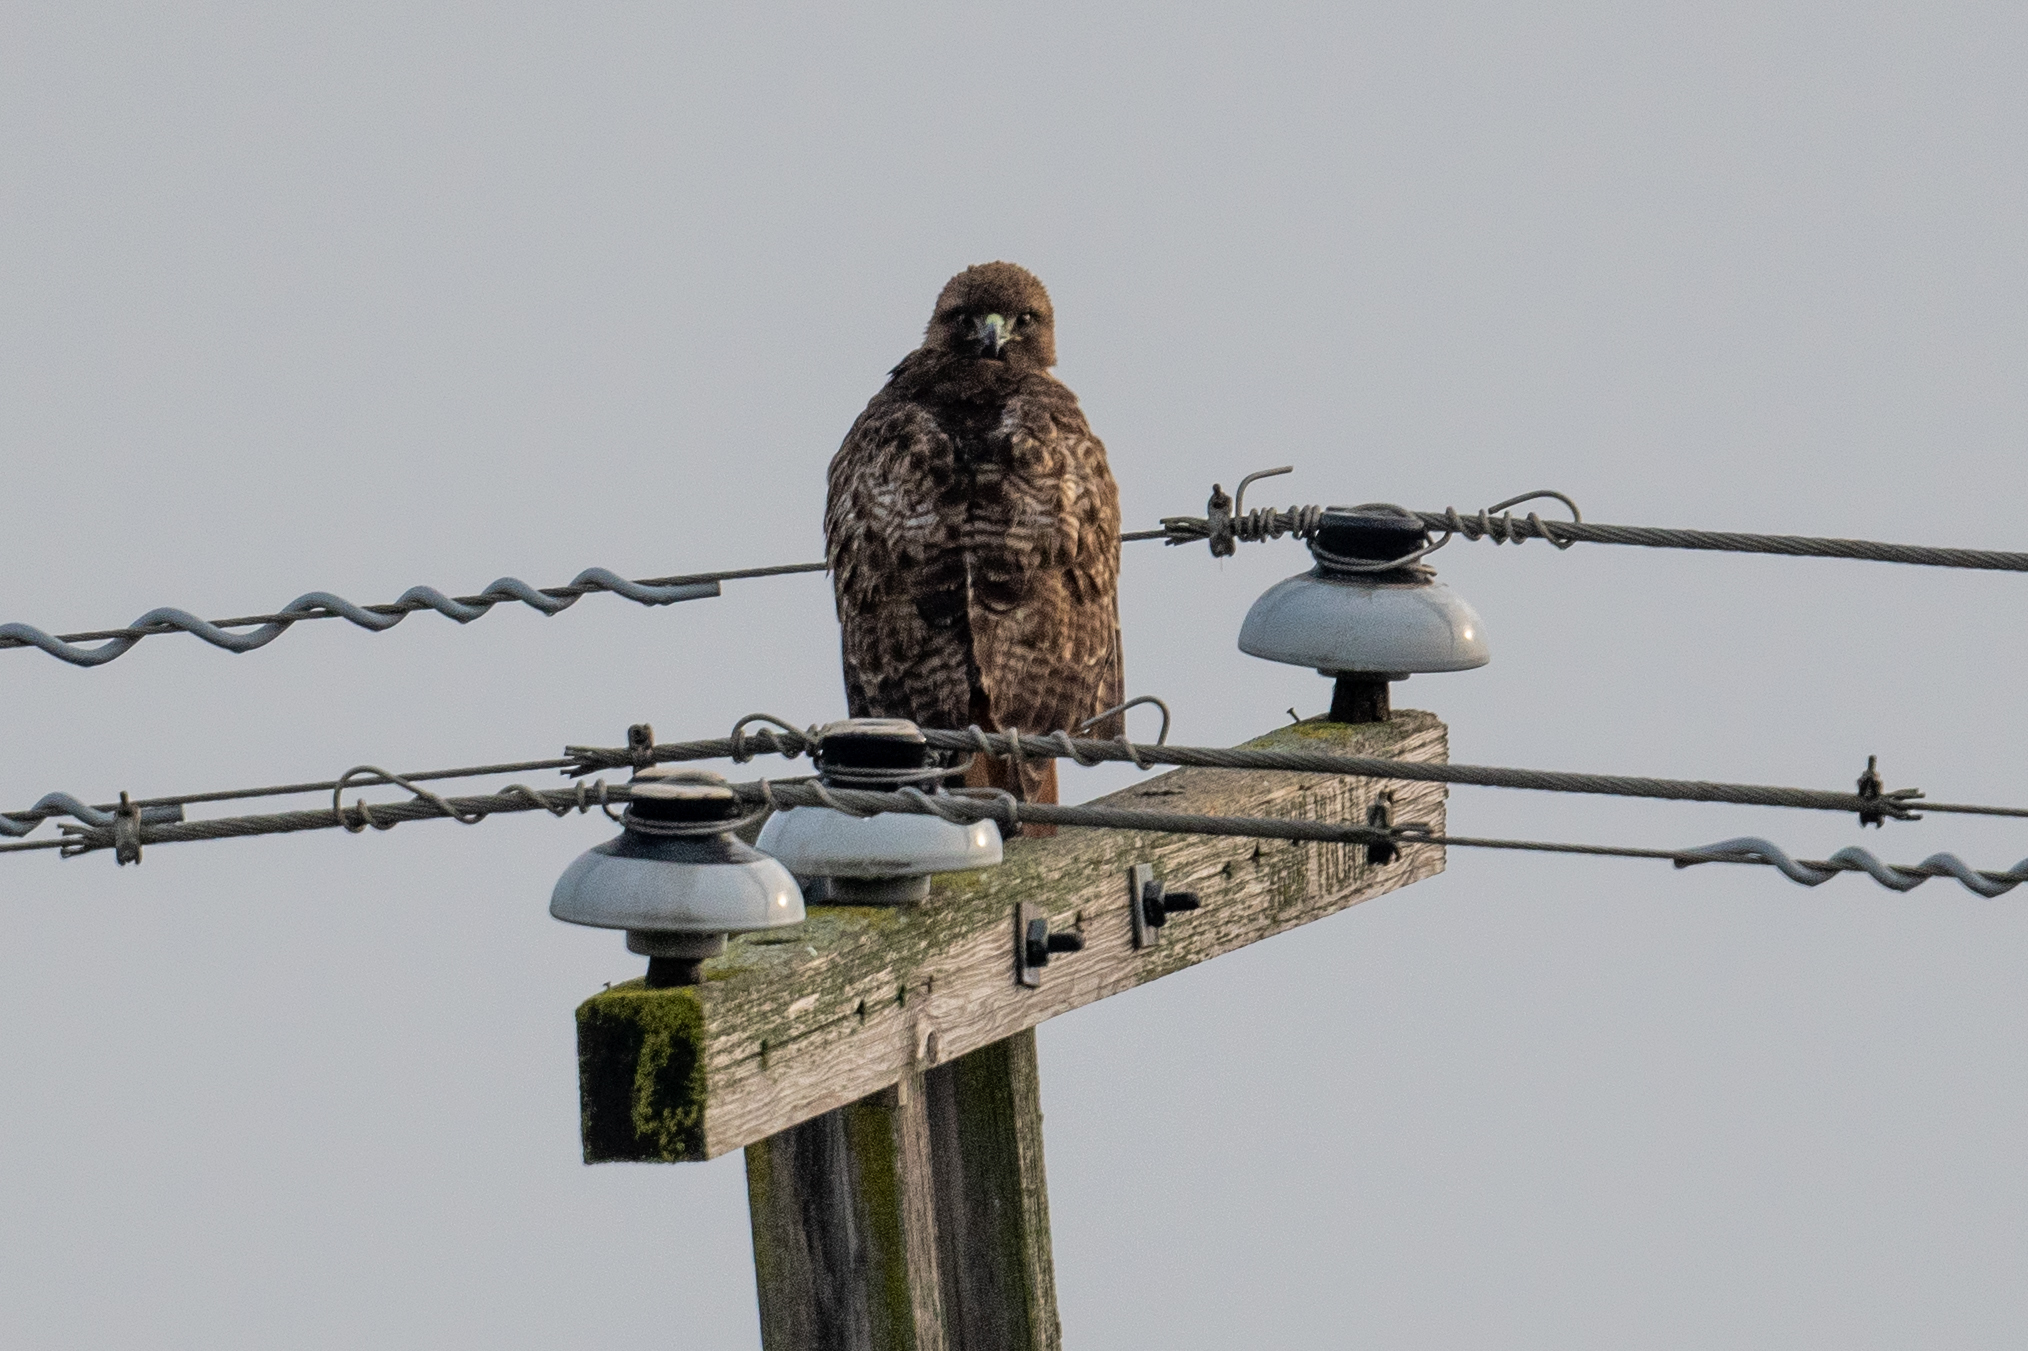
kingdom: Animalia
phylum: Chordata
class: Aves
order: Accipitriformes
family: Accipitridae
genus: Buteo
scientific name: Buteo jamaicensis
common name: Red-tailed hawk
